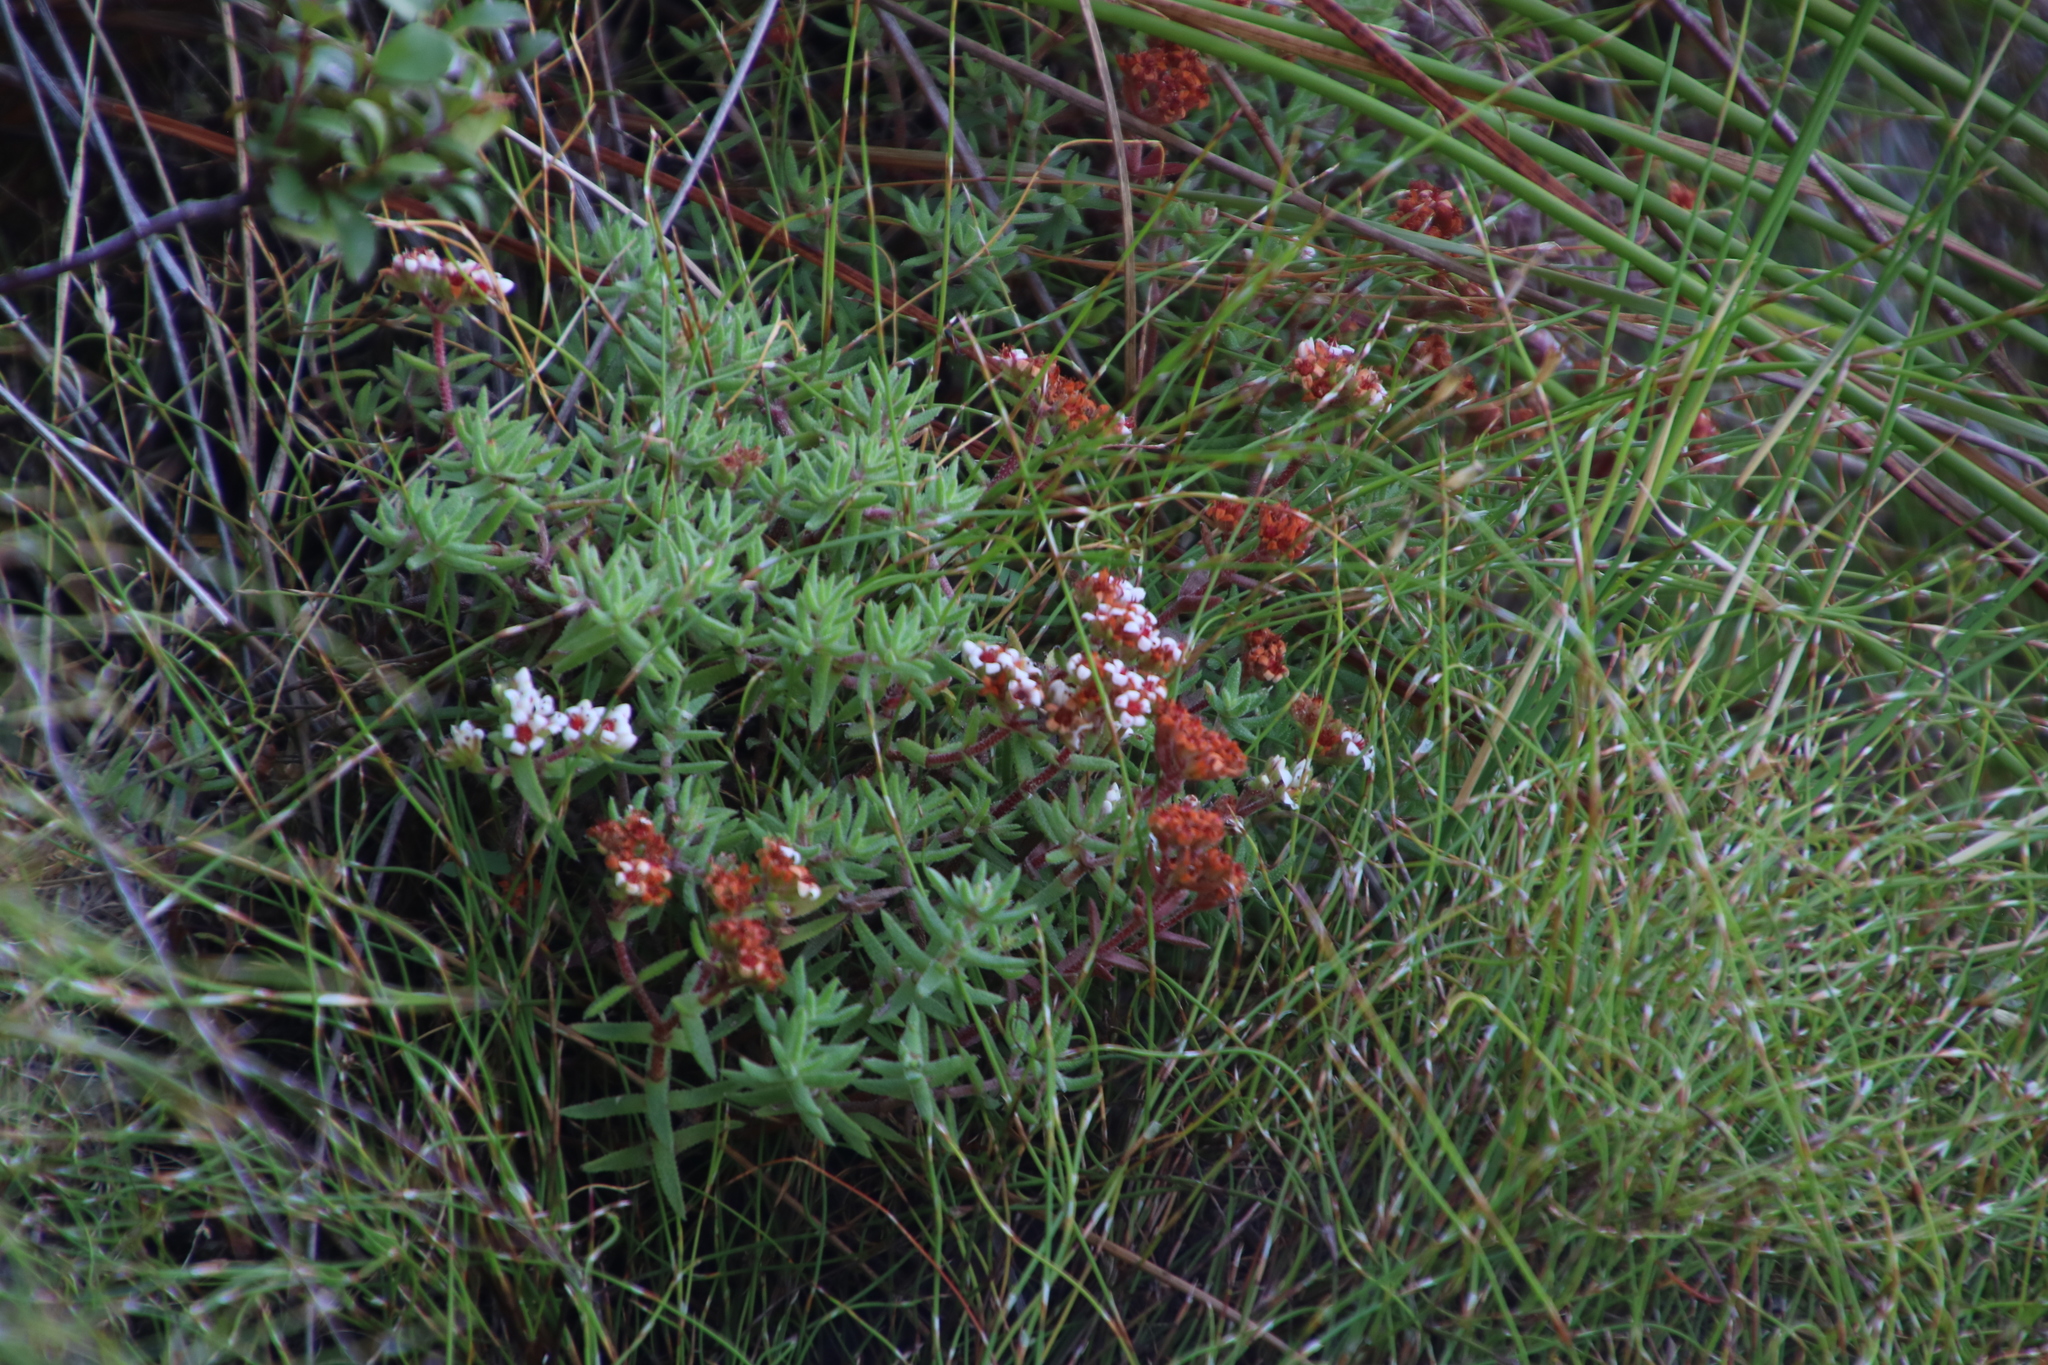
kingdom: Plantae
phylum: Tracheophyta
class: Magnoliopsida
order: Saxifragales
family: Crassulaceae
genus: Crassula
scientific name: Crassula pruinosa
